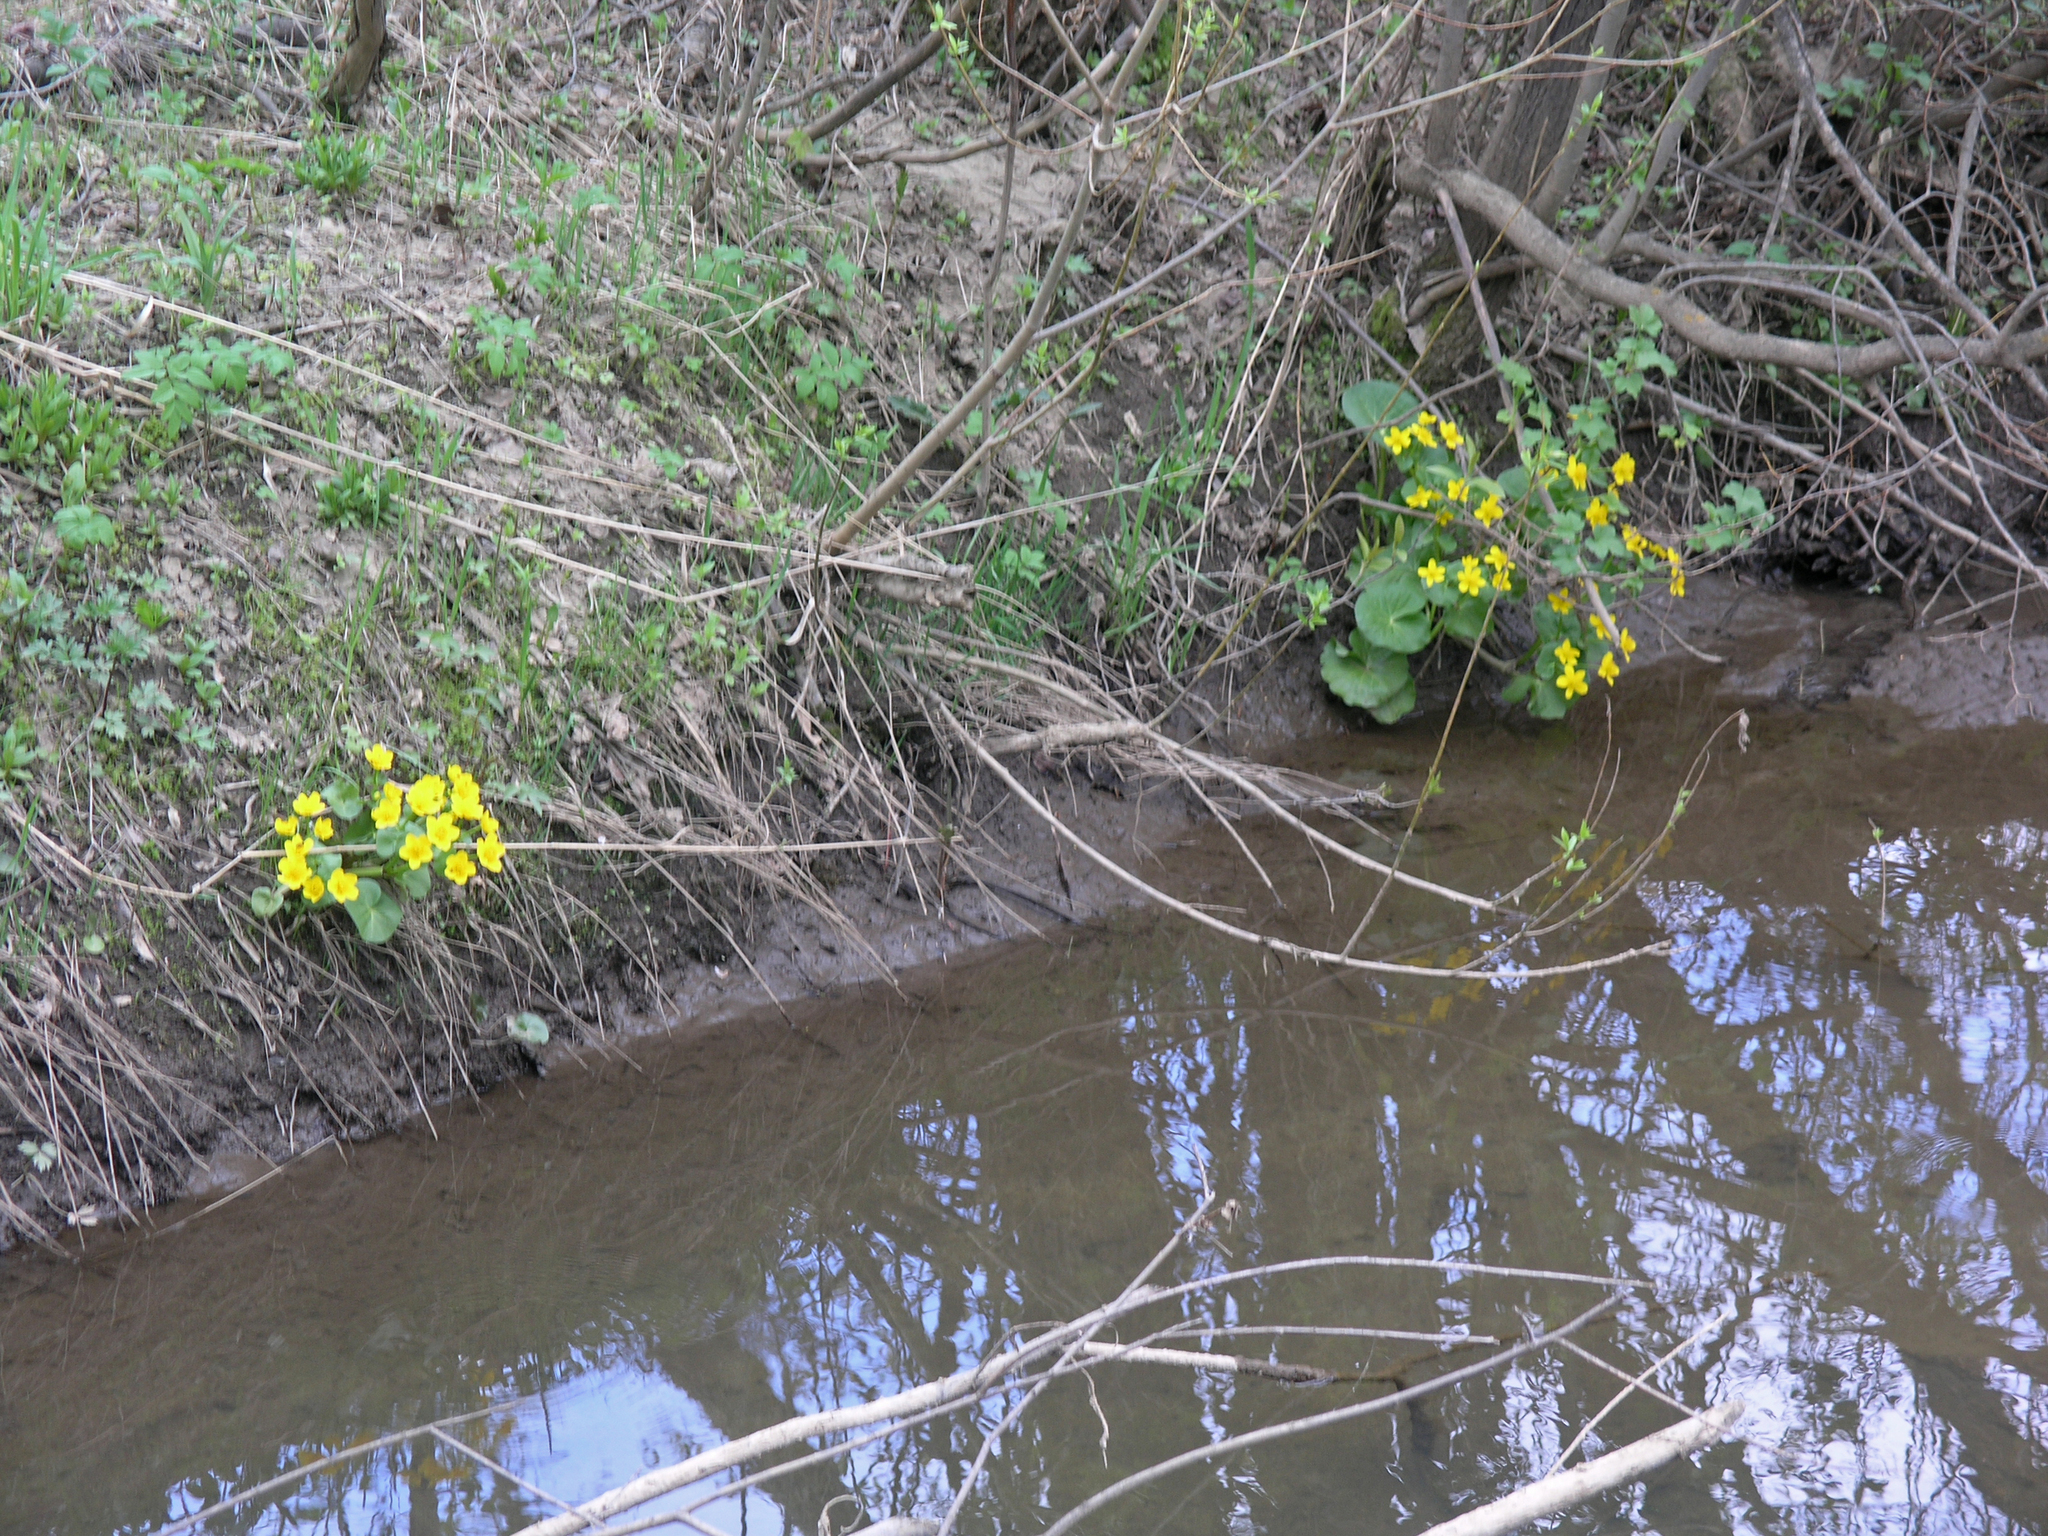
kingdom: Plantae
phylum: Tracheophyta
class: Magnoliopsida
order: Ranunculales
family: Ranunculaceae
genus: Caltha
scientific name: Caltha palustris
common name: Marsh marigold
